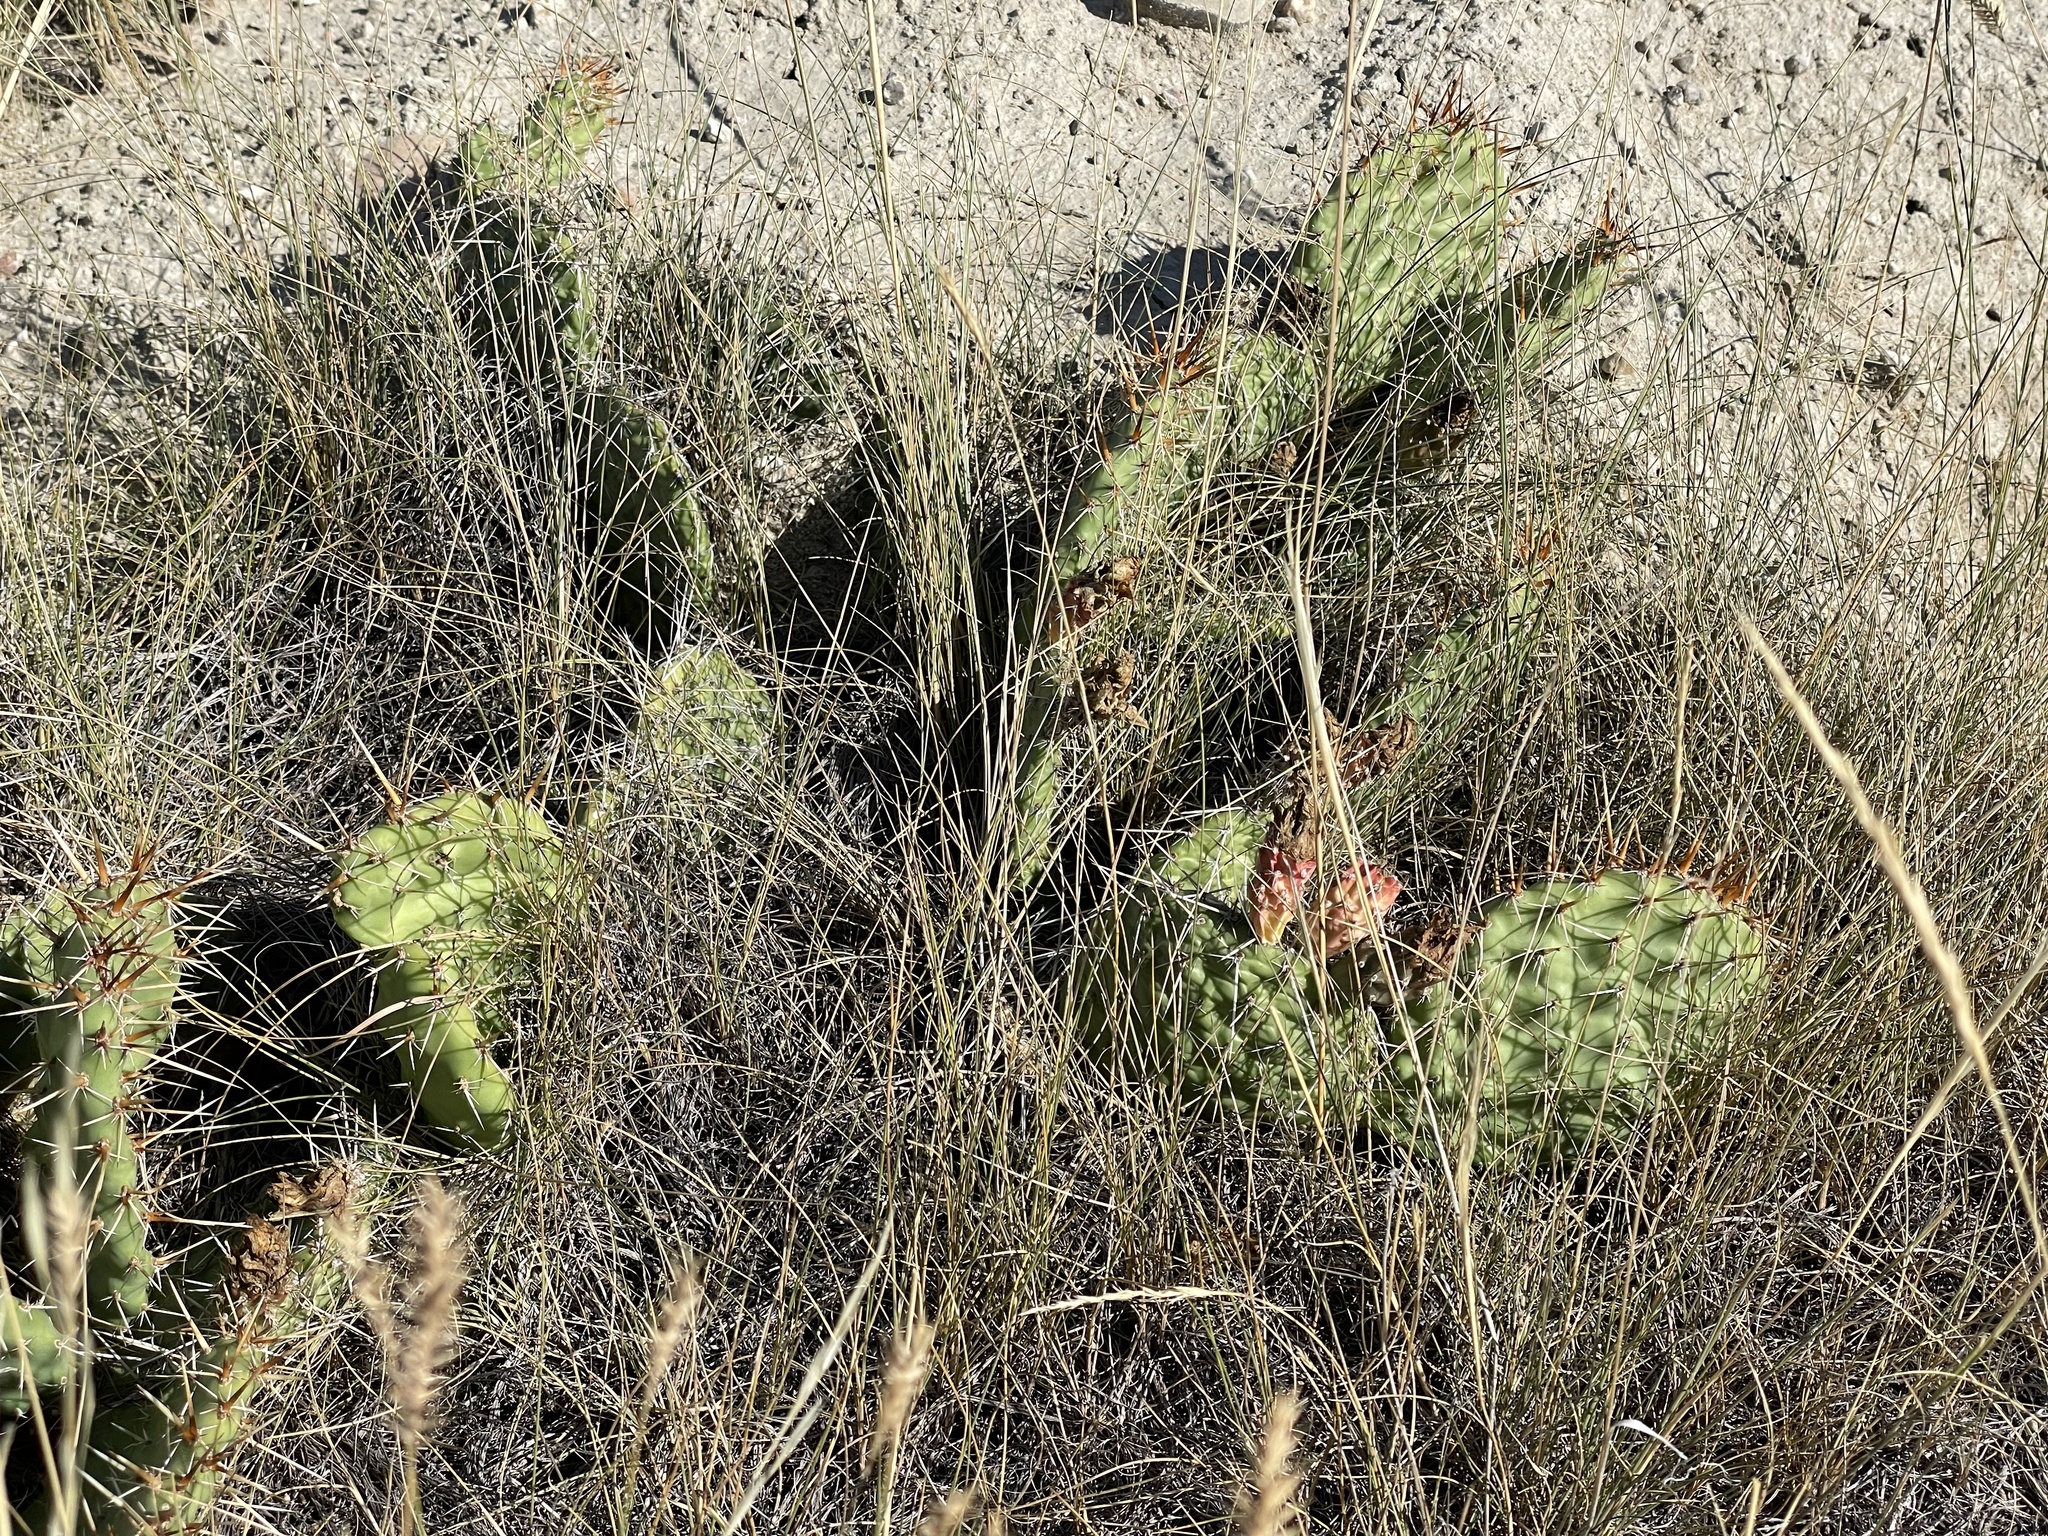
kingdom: Plantae
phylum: Tracheophyta
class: Magnoliopsida
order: Caryophyllales
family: Cactaceae
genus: Opuntia
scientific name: Opuntia polyacantha
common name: Plains prickly-pear
